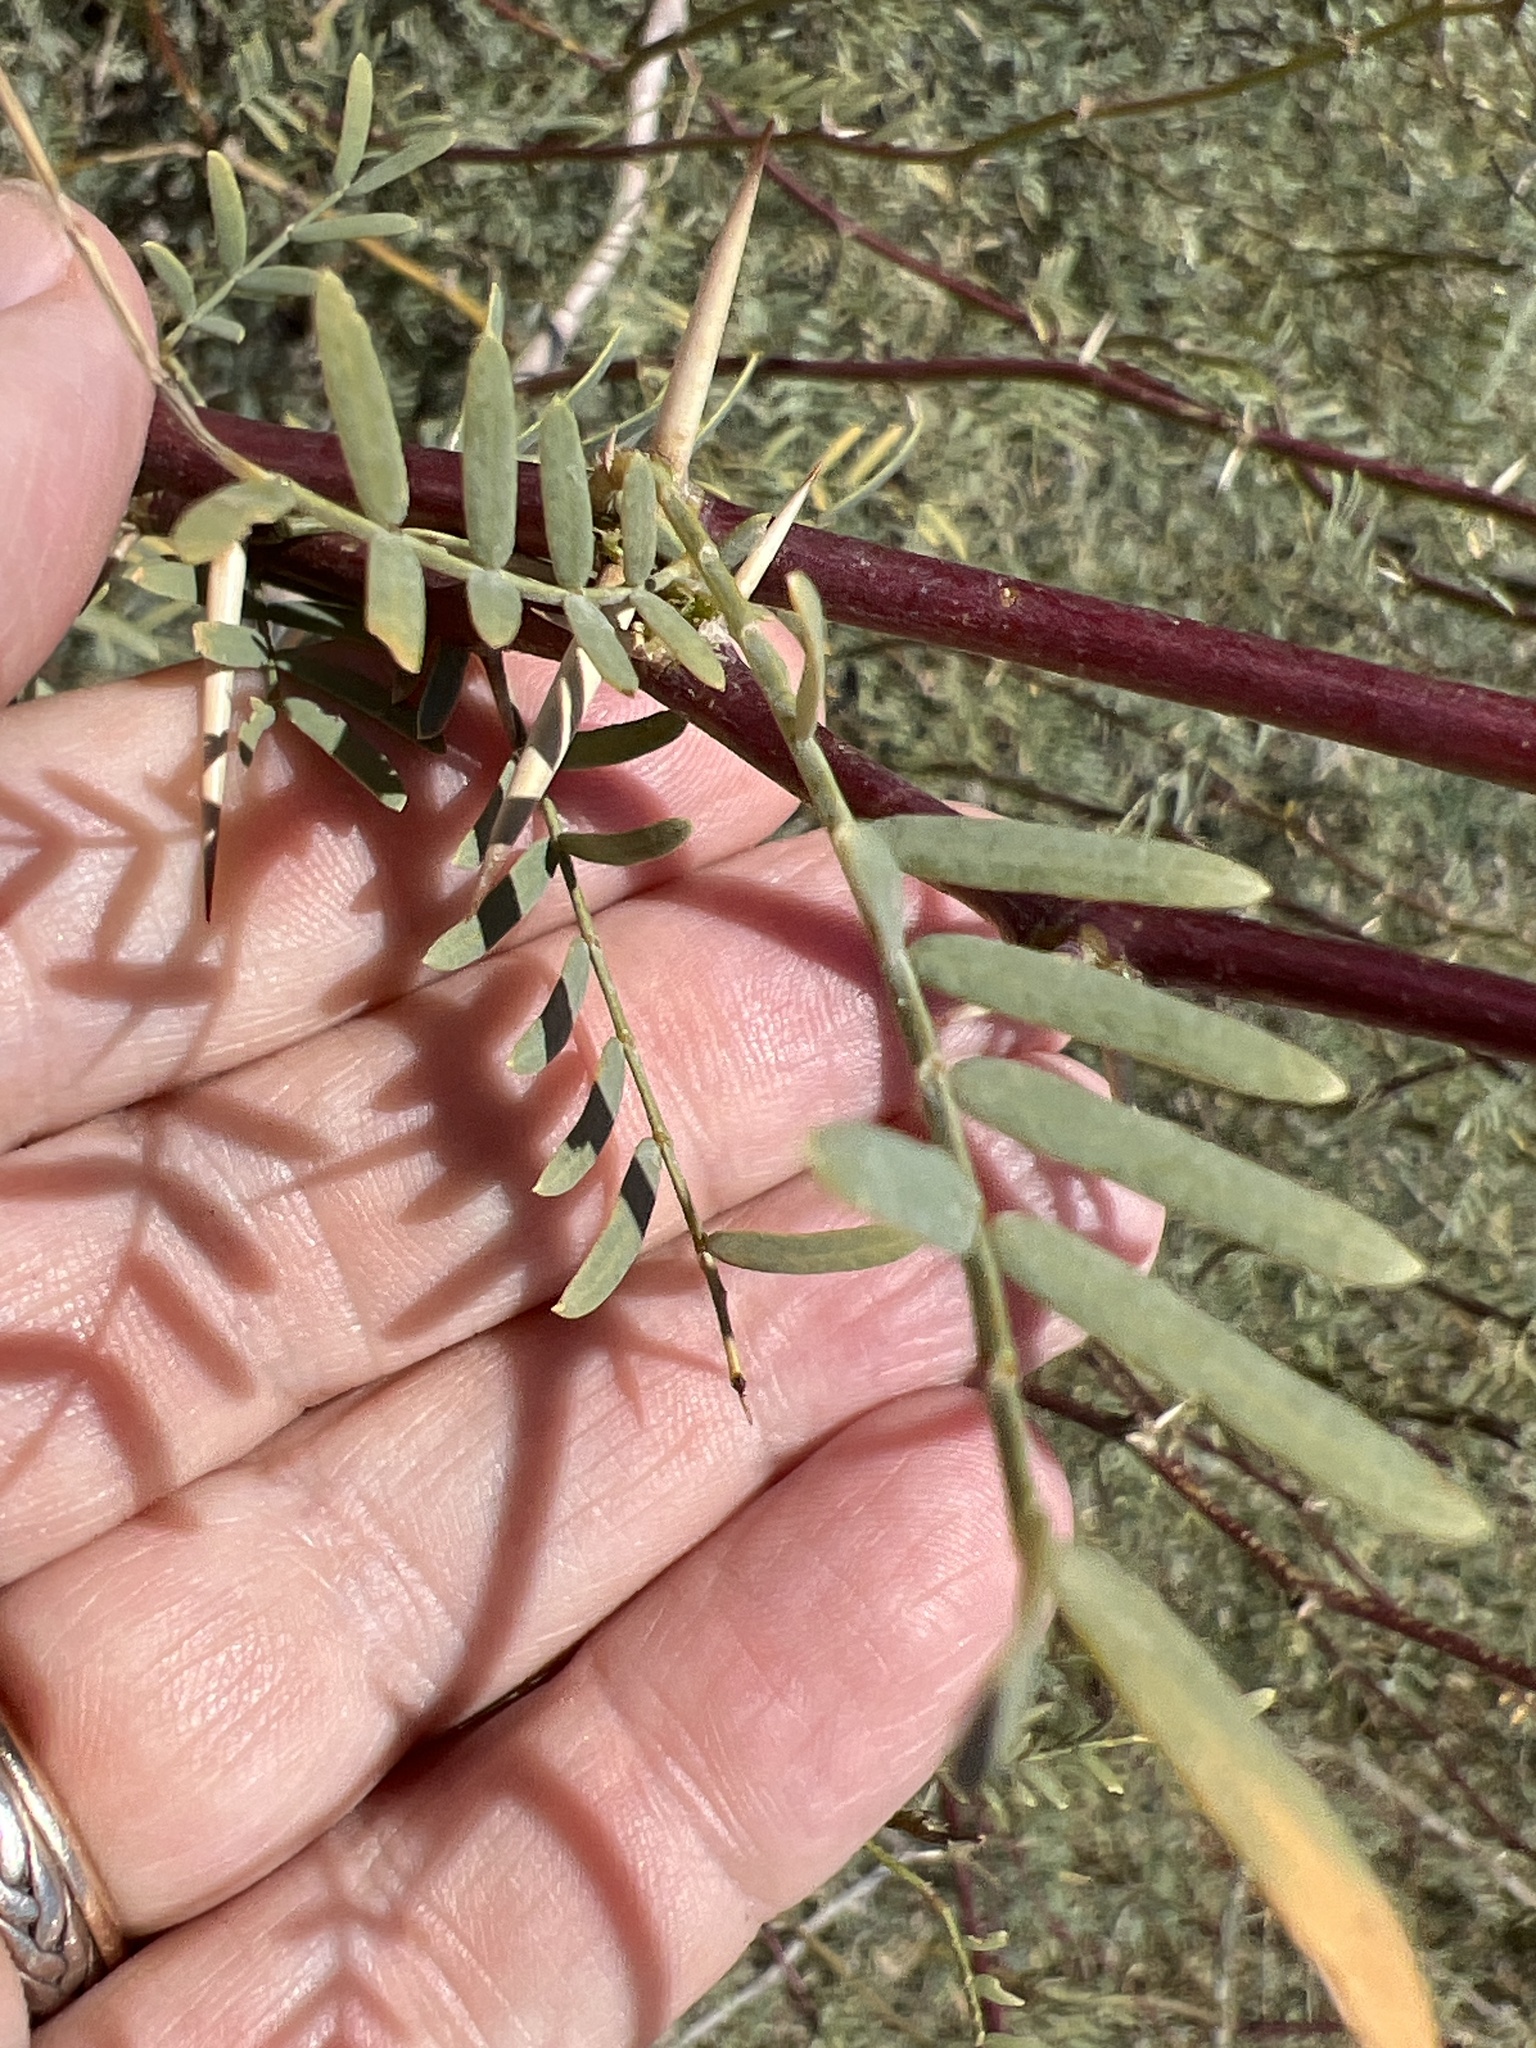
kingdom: Plantae
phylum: Tracheophyta
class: Magnoliopsida
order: Fabales
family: Fabaceae
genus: Prosopis
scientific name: Prosopis pubescens
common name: Screw-bean
